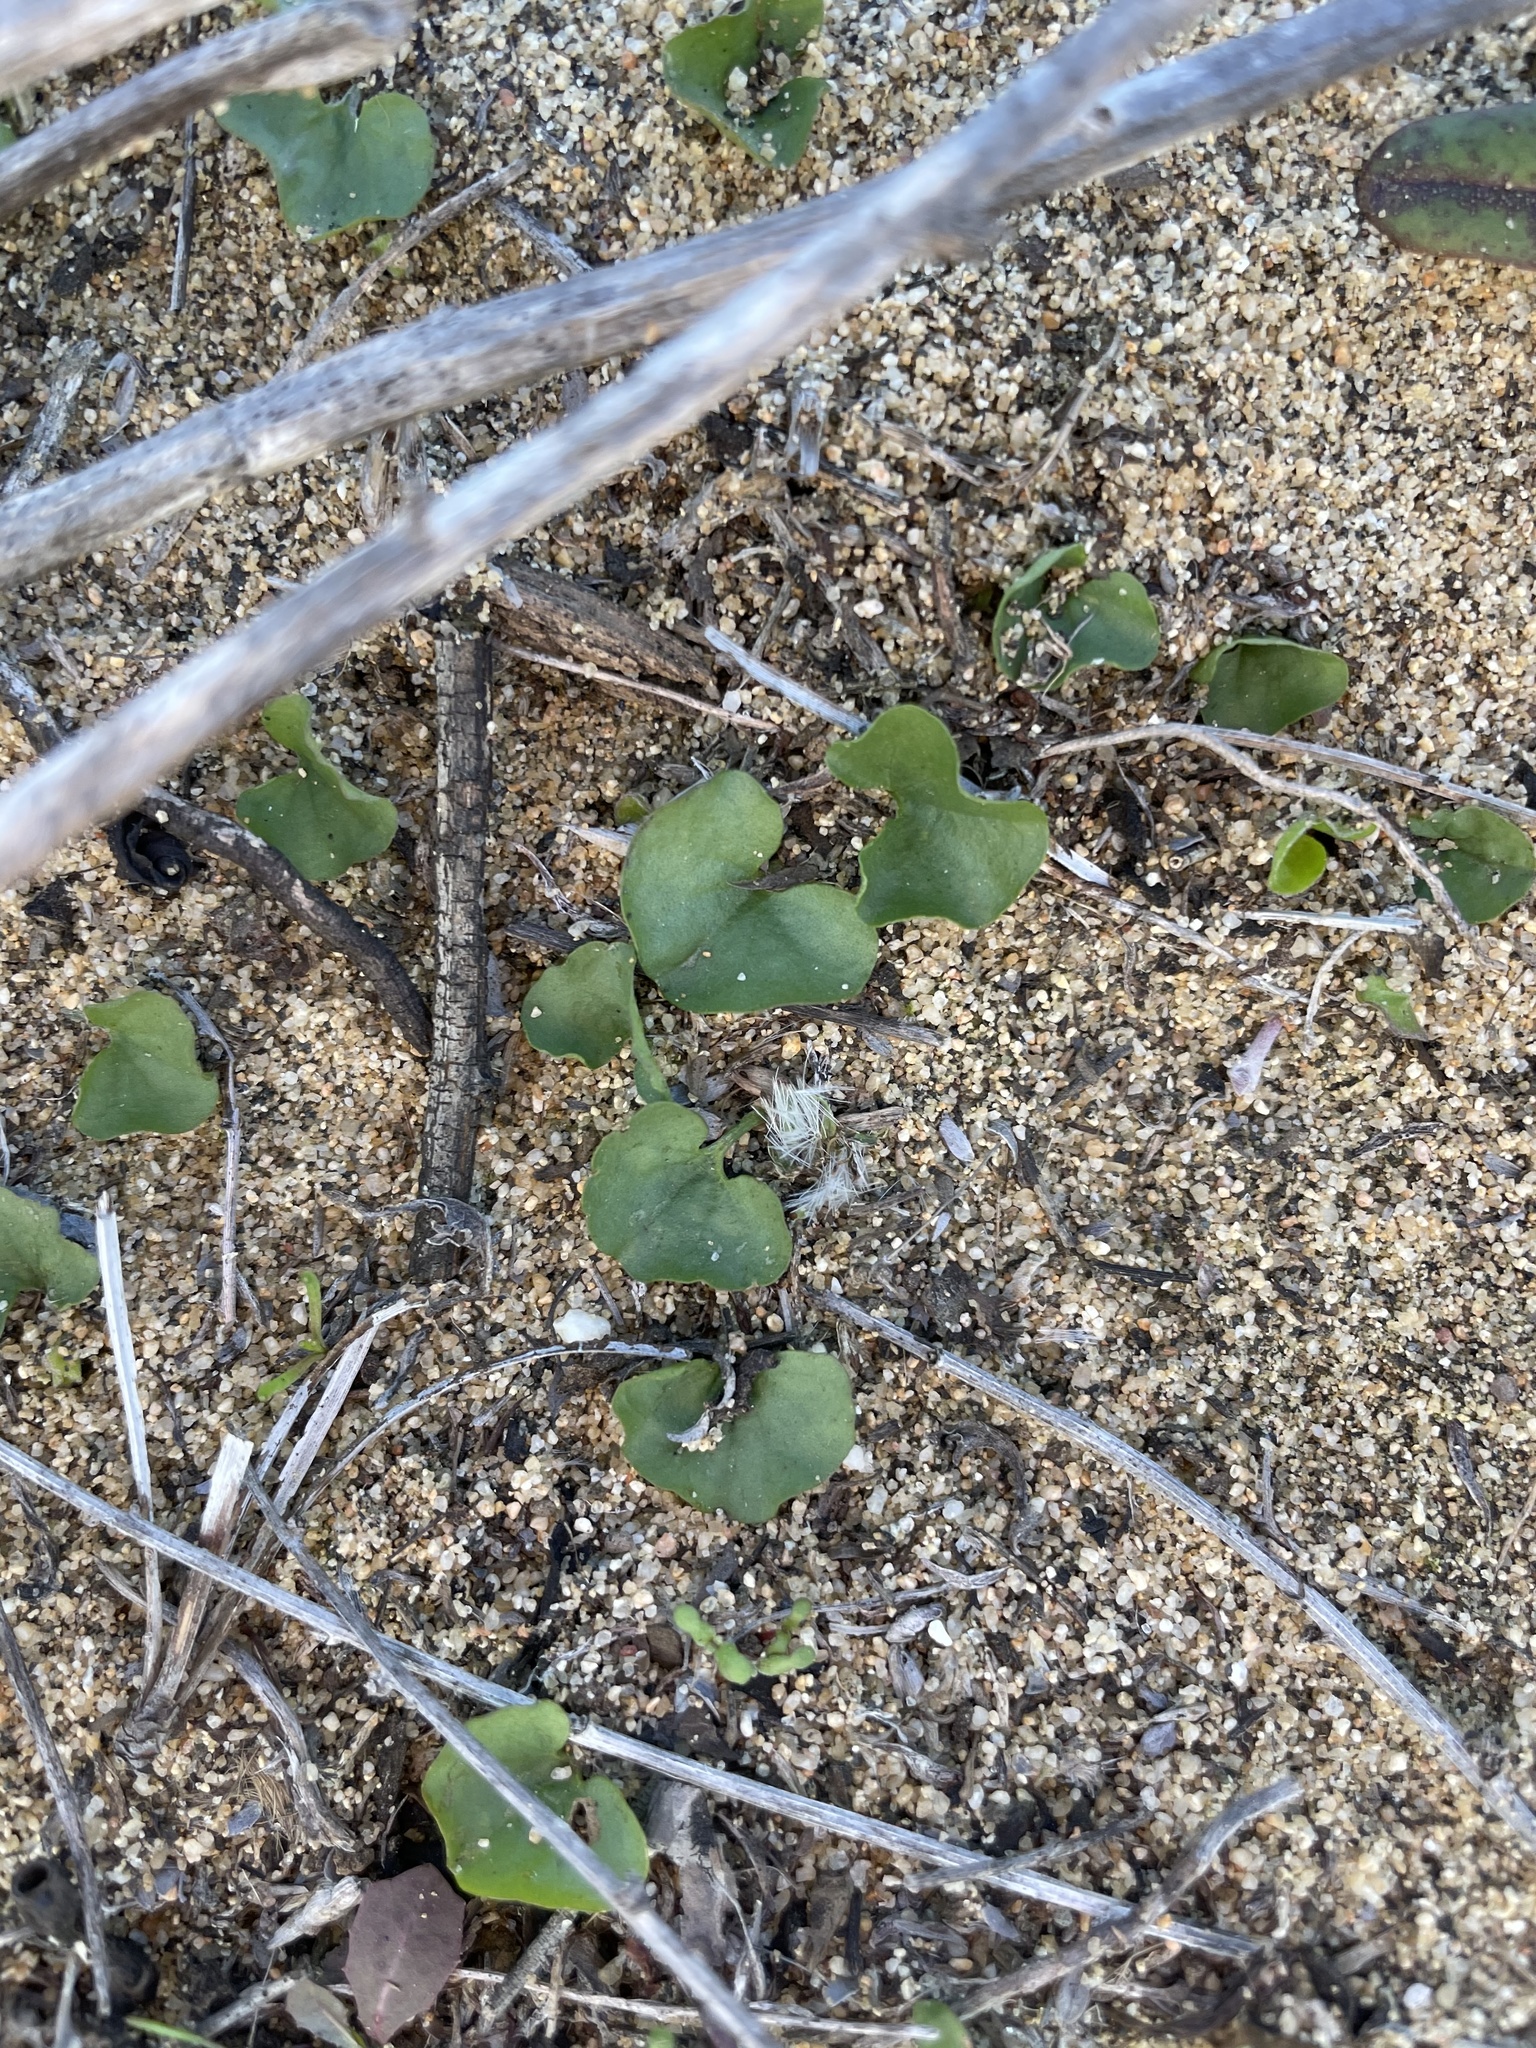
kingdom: Plantae
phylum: Tracheophyta
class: Magnoliopsida
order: Solanales
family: Convolvulaceae
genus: Dichondra
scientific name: Dichondra occidentalis
